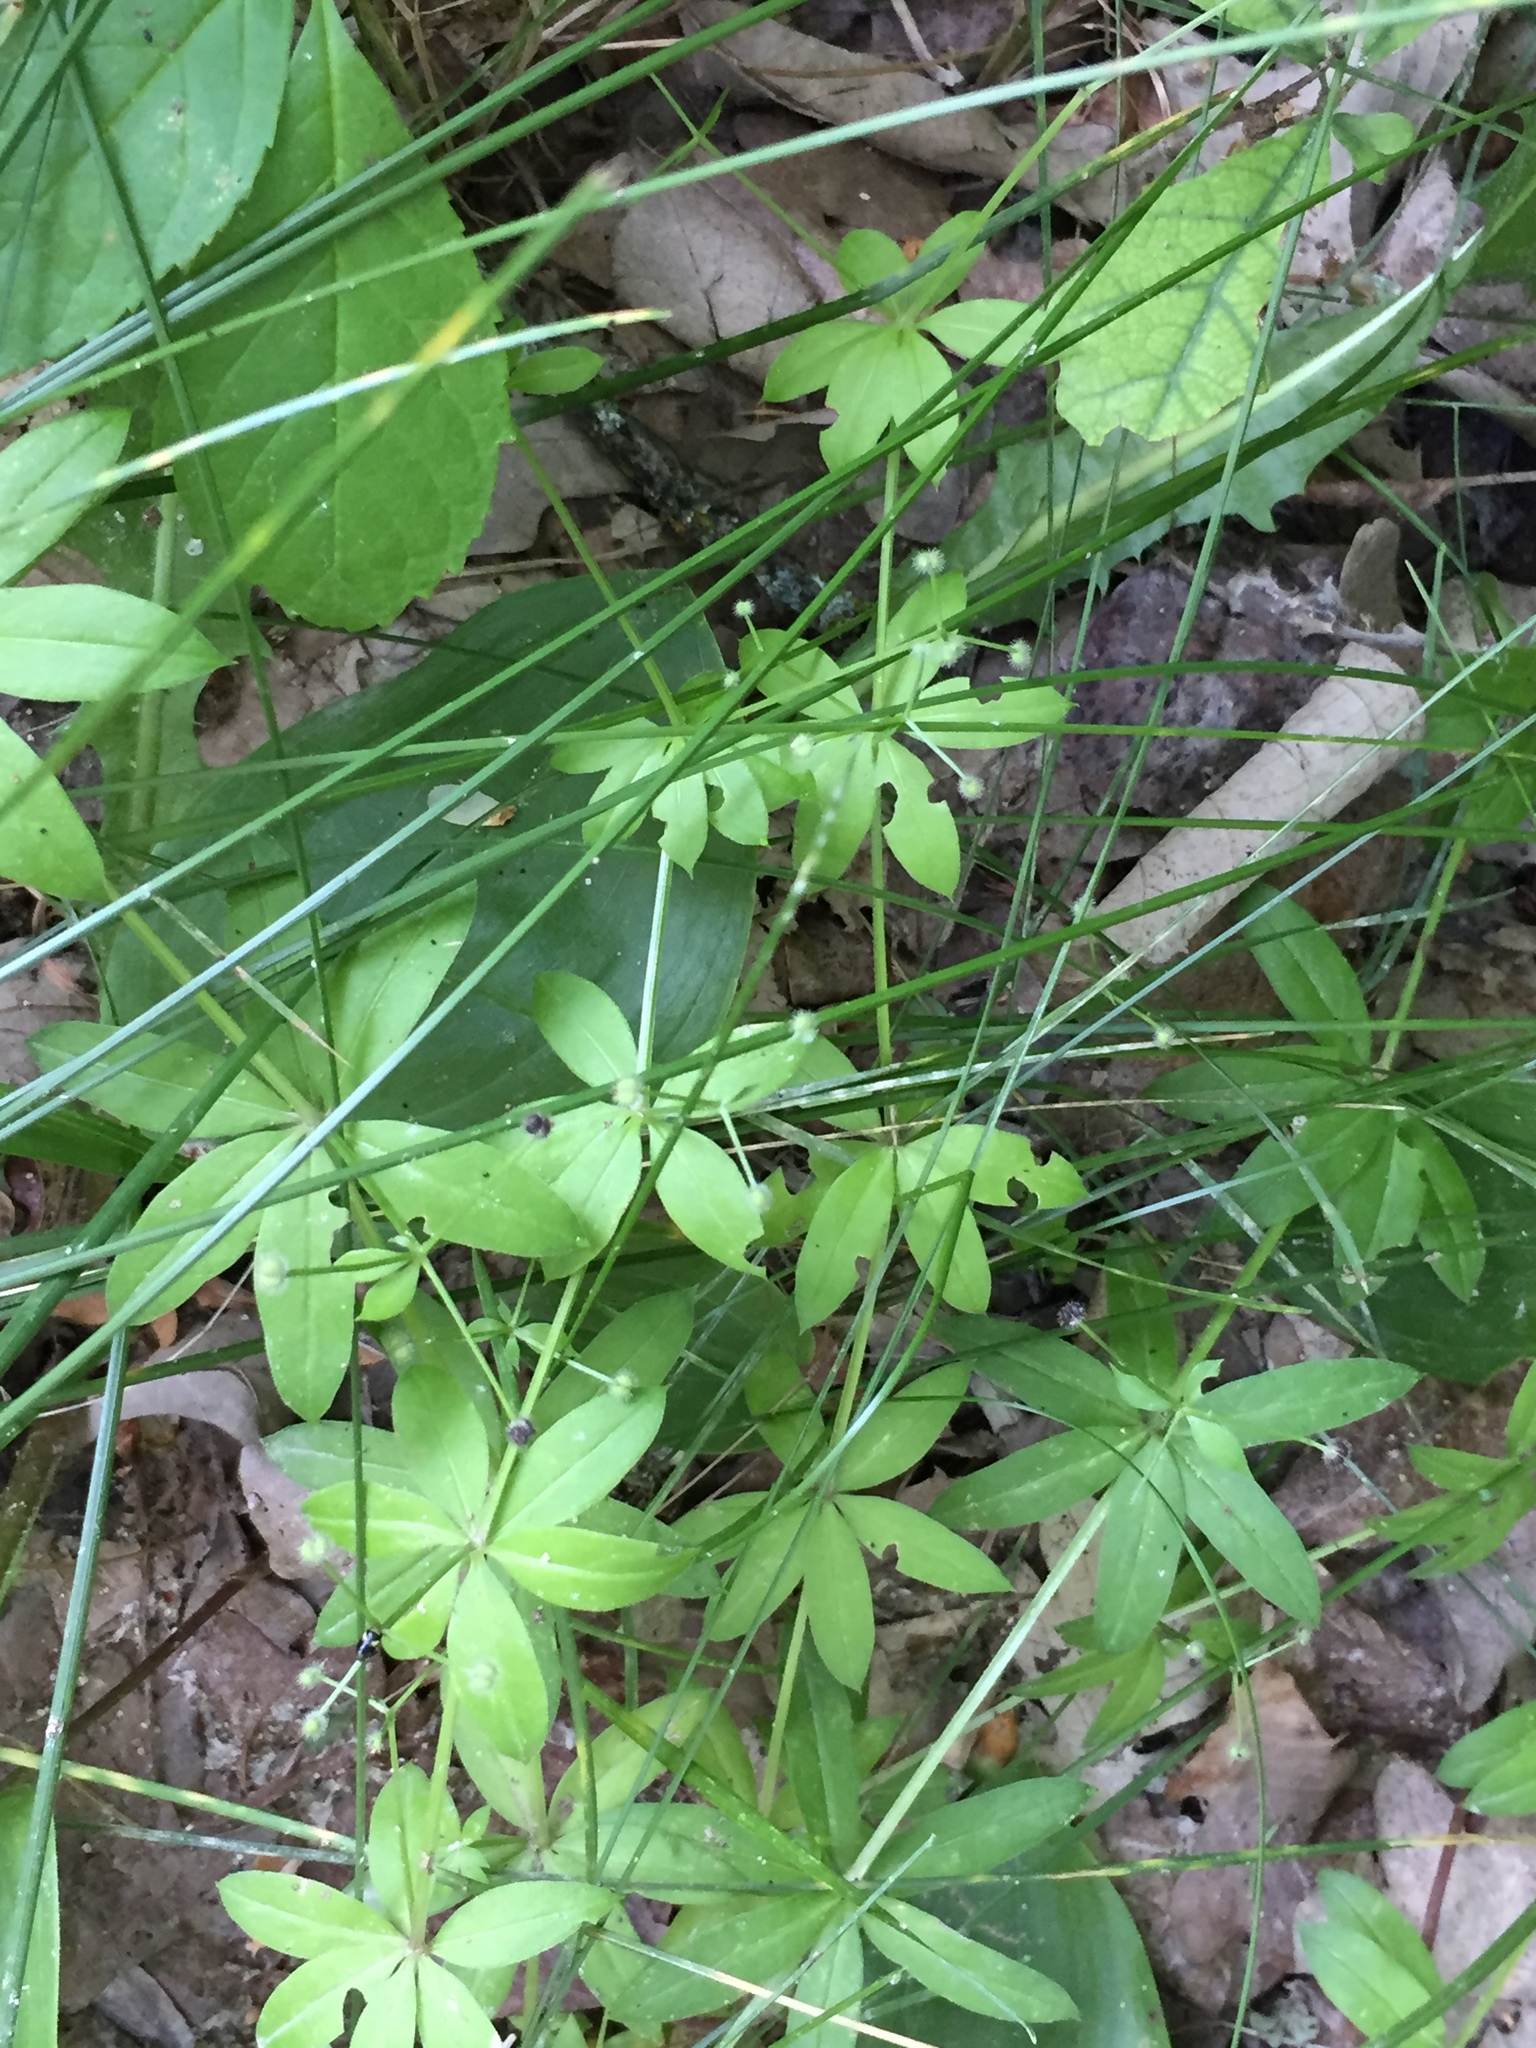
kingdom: Plantae
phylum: Tracheophyta
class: Magnoliopsida
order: Gentianales
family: Rubiaceae
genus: Galium
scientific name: Galium triflorum
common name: Fragrant bedstraw
